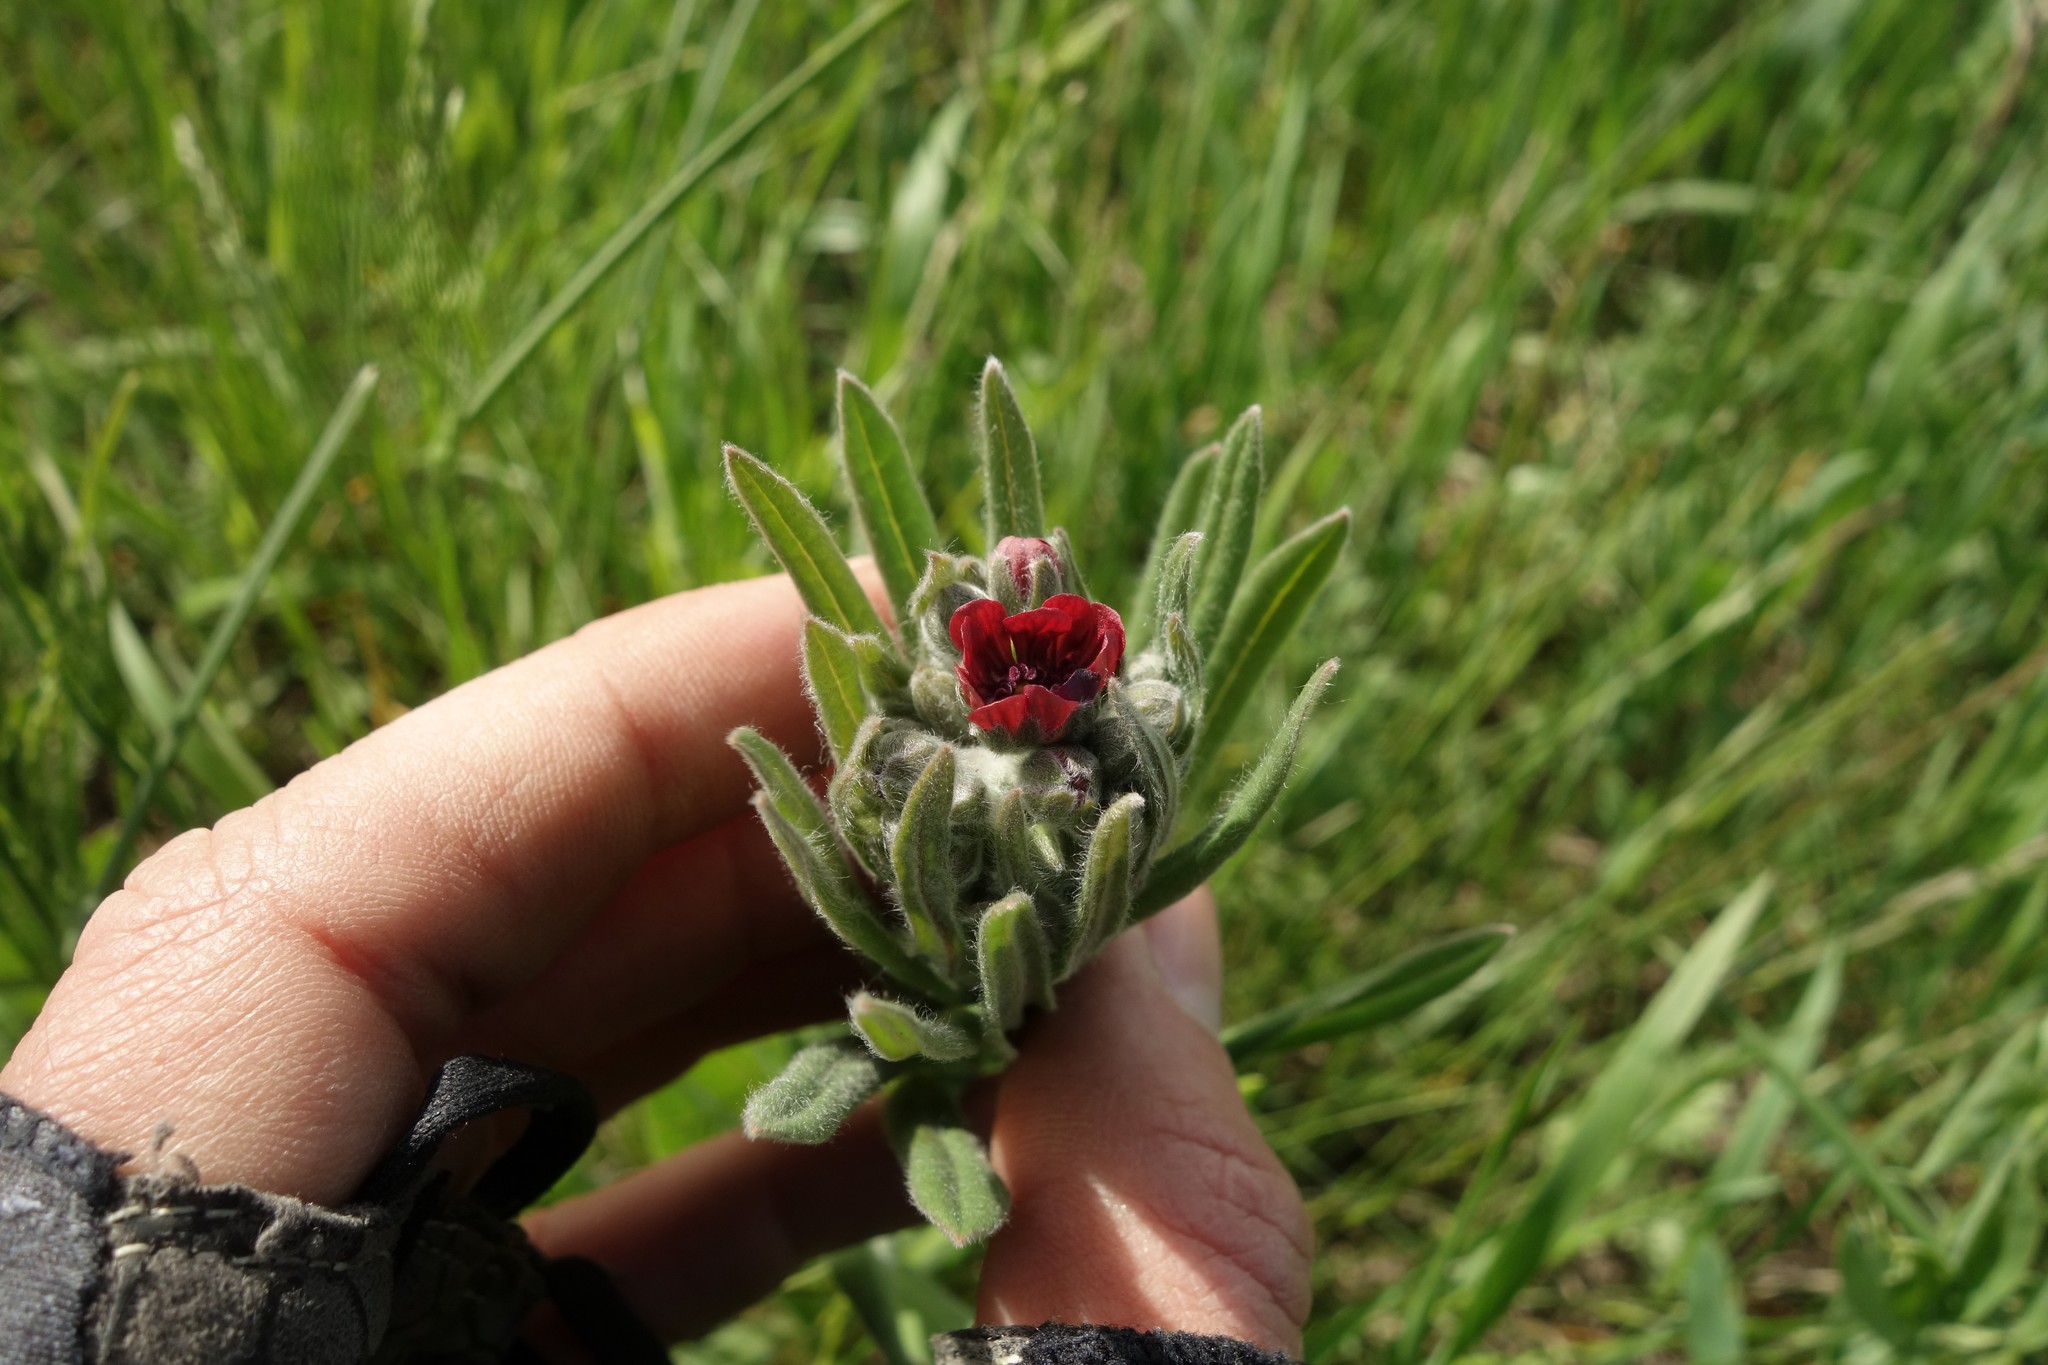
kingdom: Plantae
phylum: Tracheophyta
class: Magnoliopsida
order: Boraginales
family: Boraginaceae
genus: Cynoglossum
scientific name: Cynoglossum officinale
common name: Hound's-tongue
